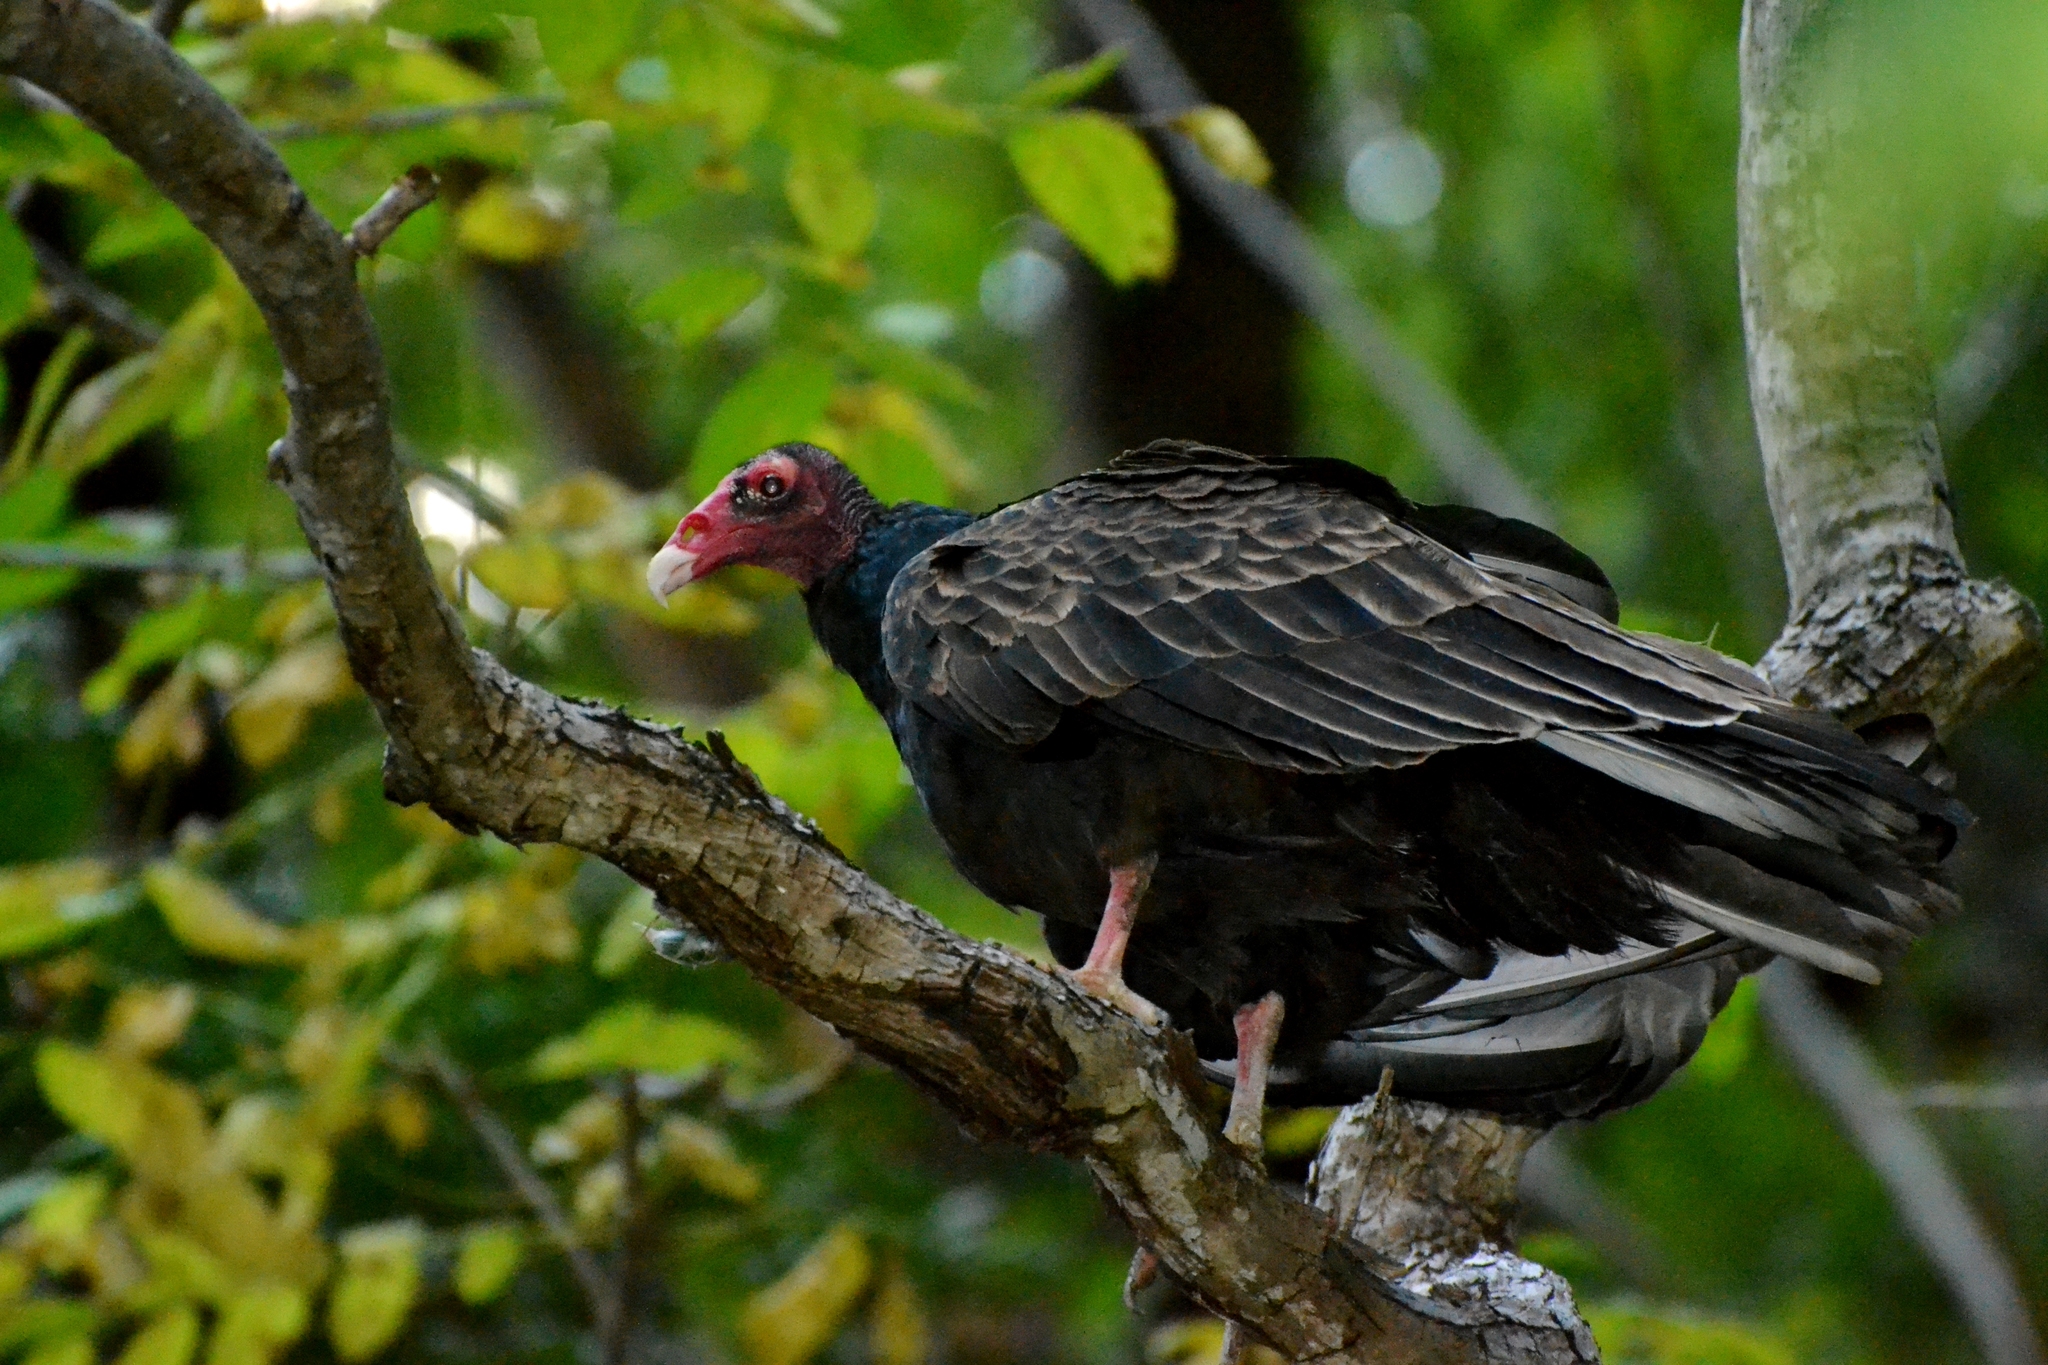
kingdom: Animalia
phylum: Chordata
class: Aves
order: Accipitriformes
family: Cathartidae
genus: Cathartes
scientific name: Cathartes aura
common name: Turkey vulture
